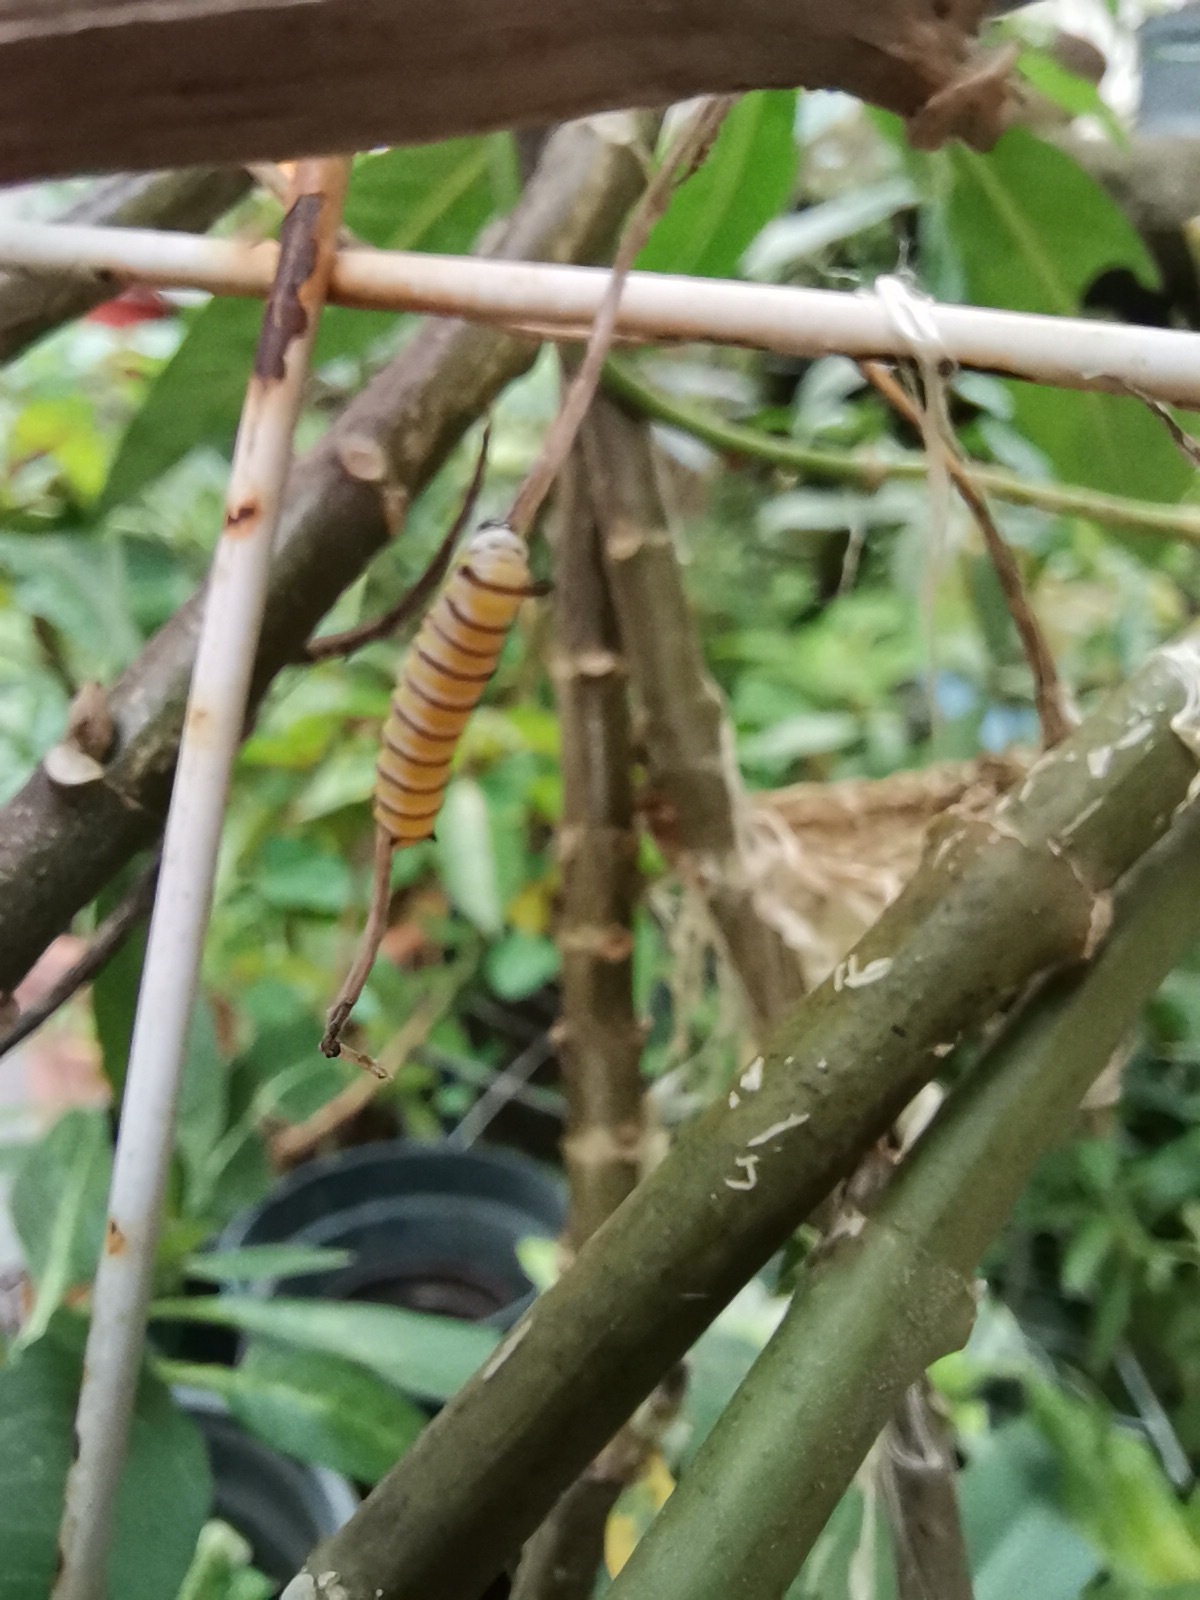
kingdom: Animalia
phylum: Arthropoda
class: Insecta
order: Lepidoptera
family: Nymphalidae
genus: Danaus
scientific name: Danaus plexippus
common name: Monarch
